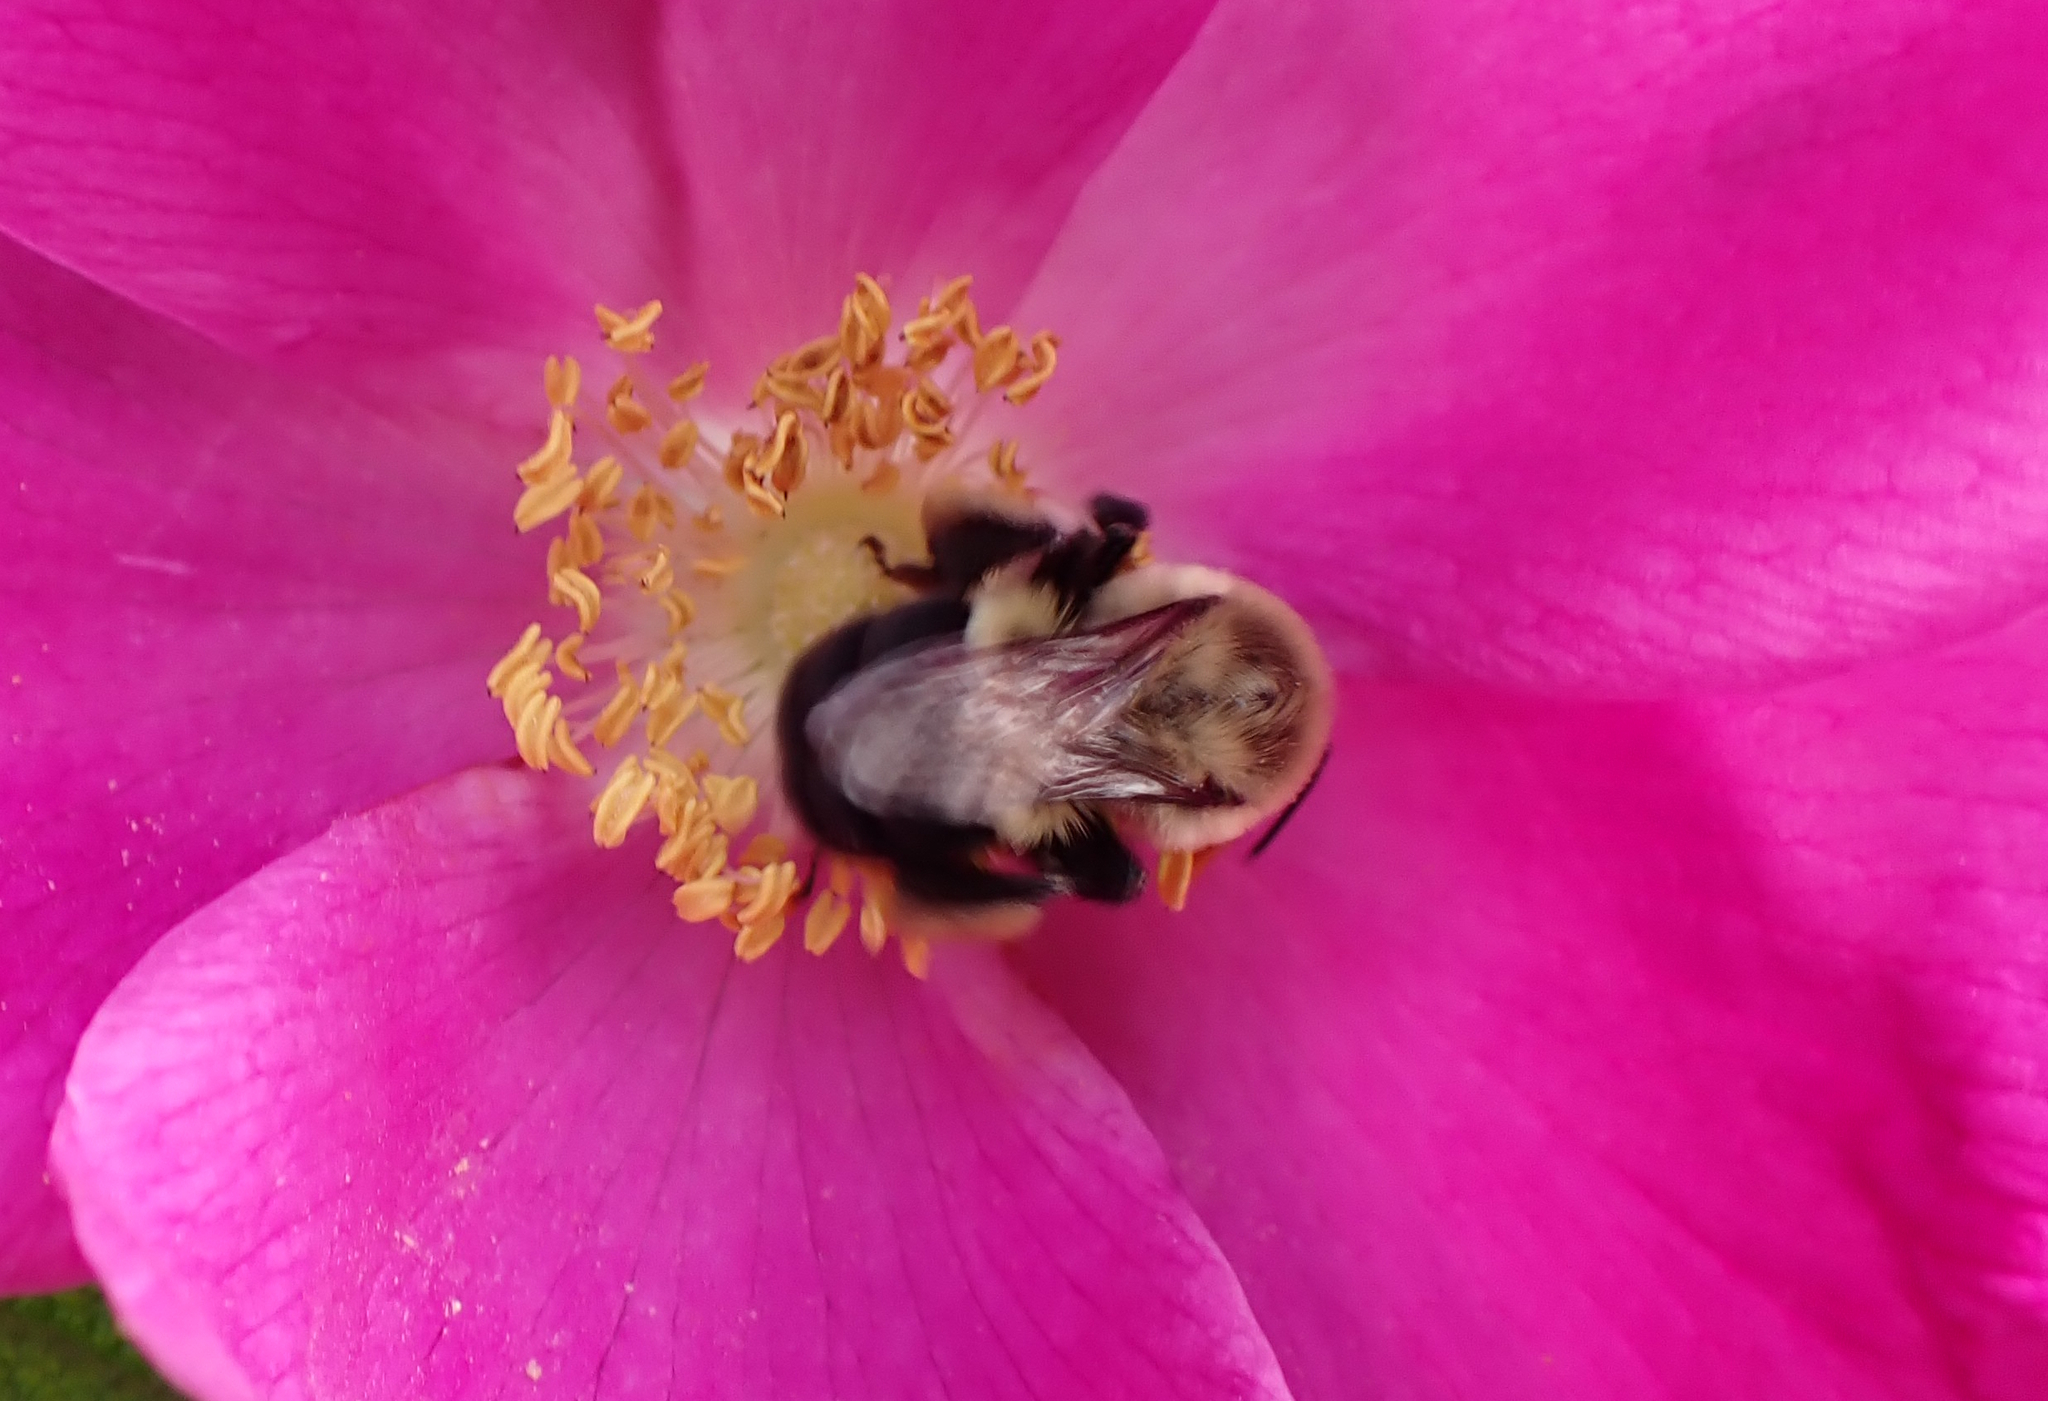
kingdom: Animalia
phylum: Arthropoda
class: Insecta
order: Hymenoptera
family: Apidae
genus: Bombus
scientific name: Bombus impatiens
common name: Common eastern bumble bee
